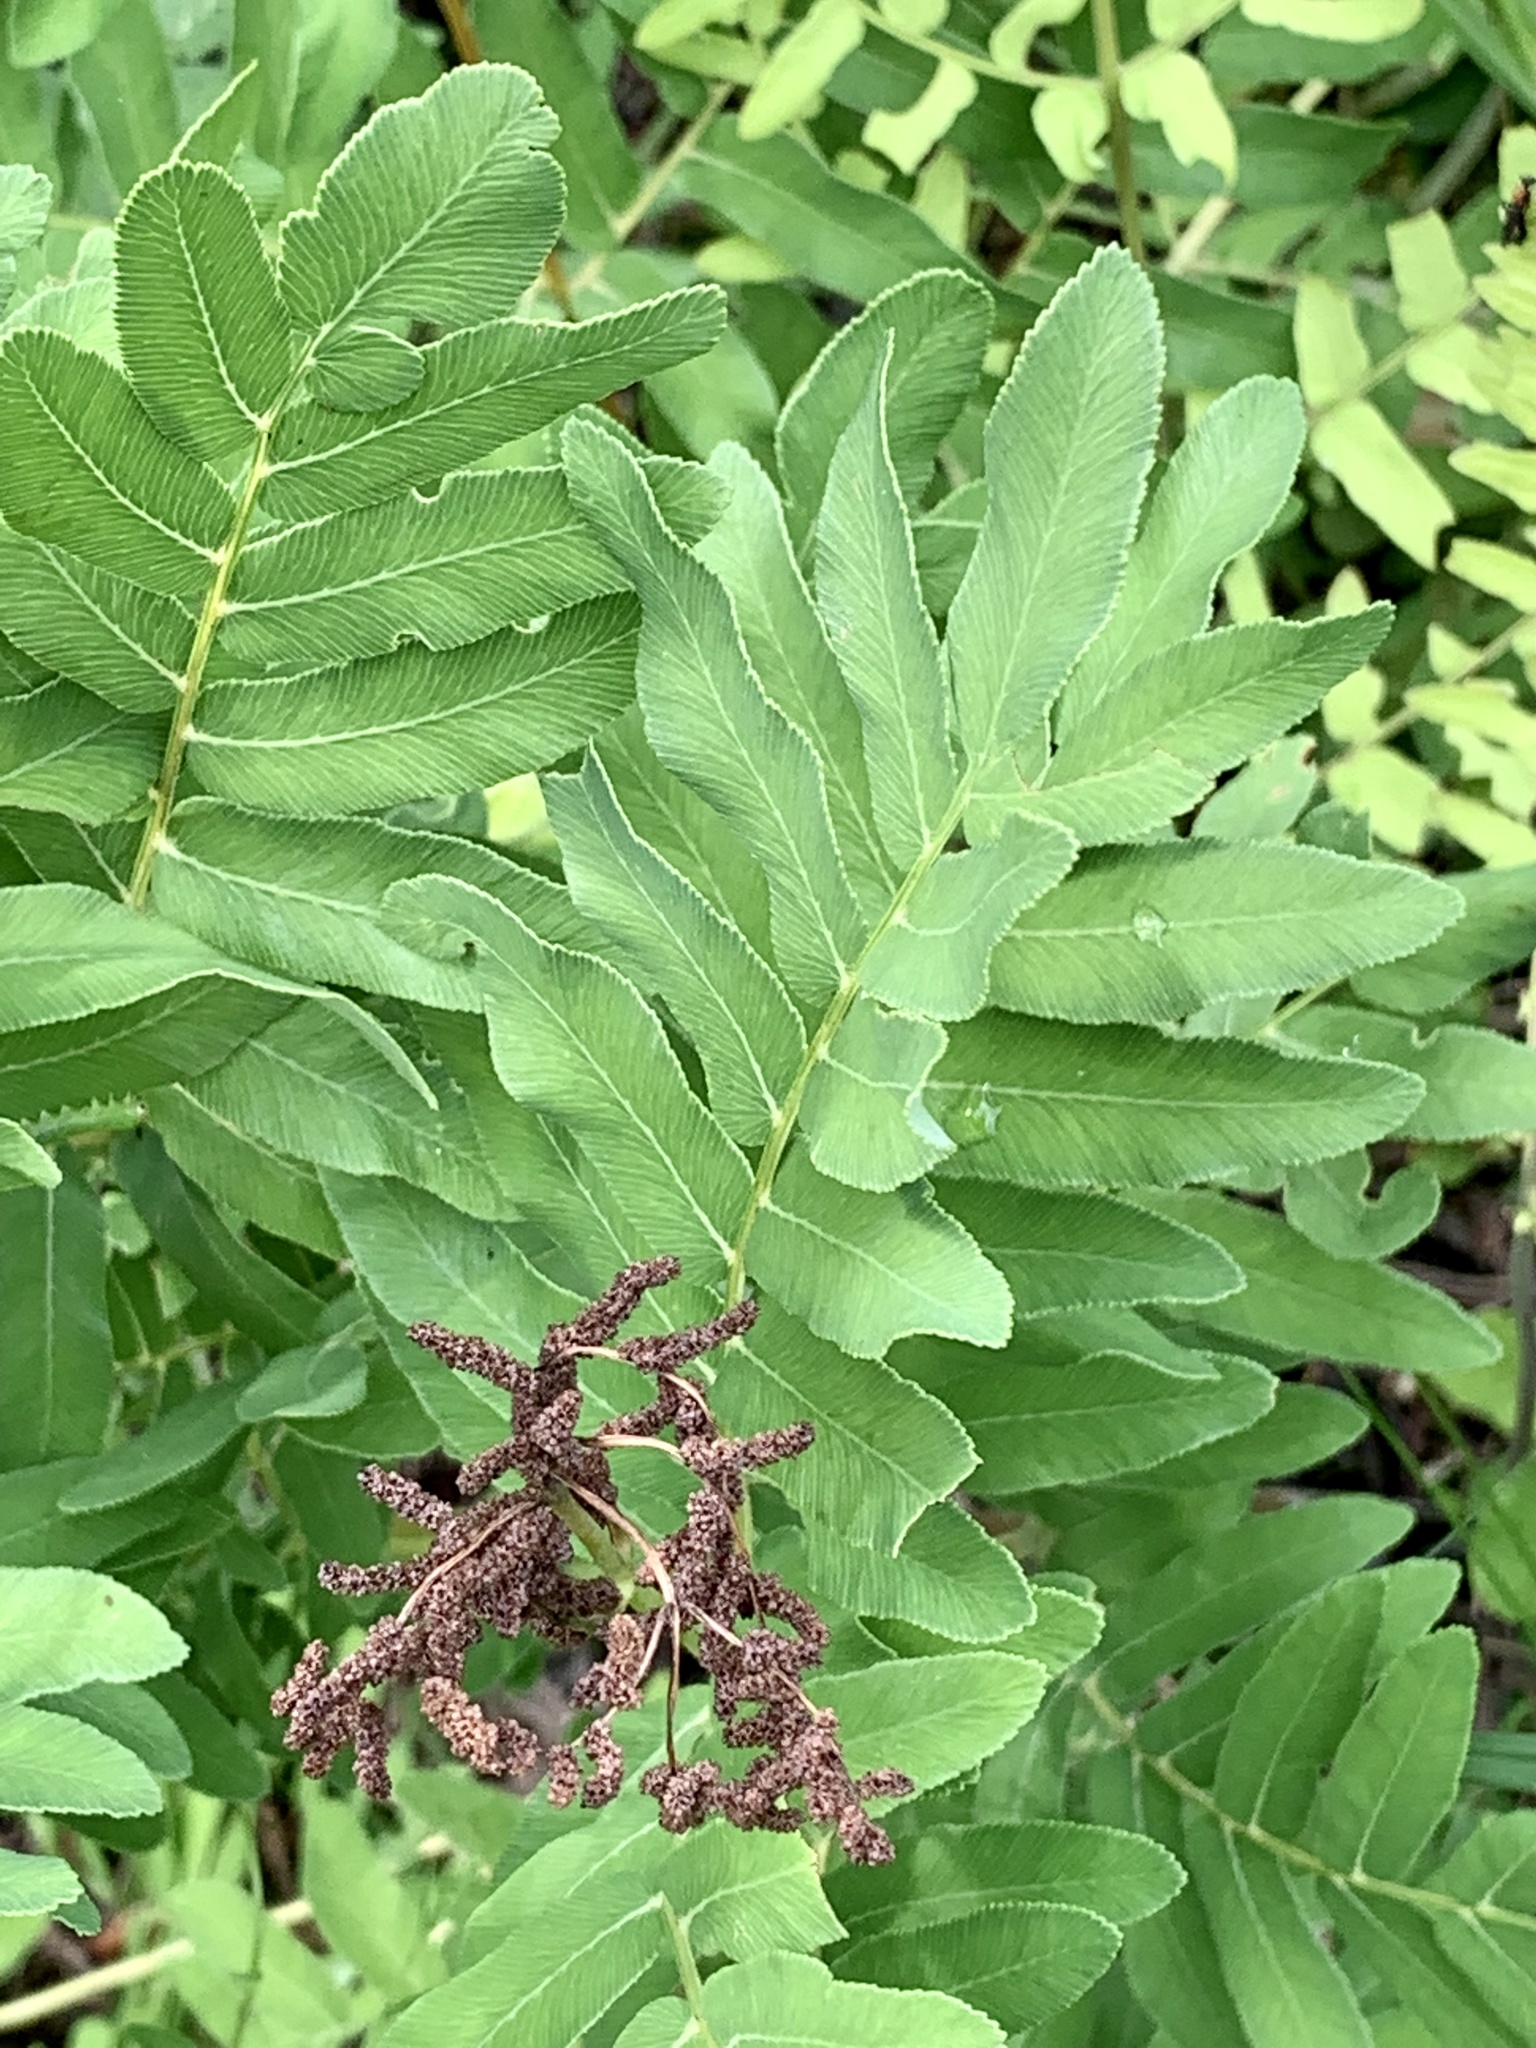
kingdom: Plantae
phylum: Tracheophyta
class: Polypodiopsida
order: Osmundales
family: Osmundaceae
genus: Osmunda
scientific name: Osmunda spectabilis
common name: American royal fern
